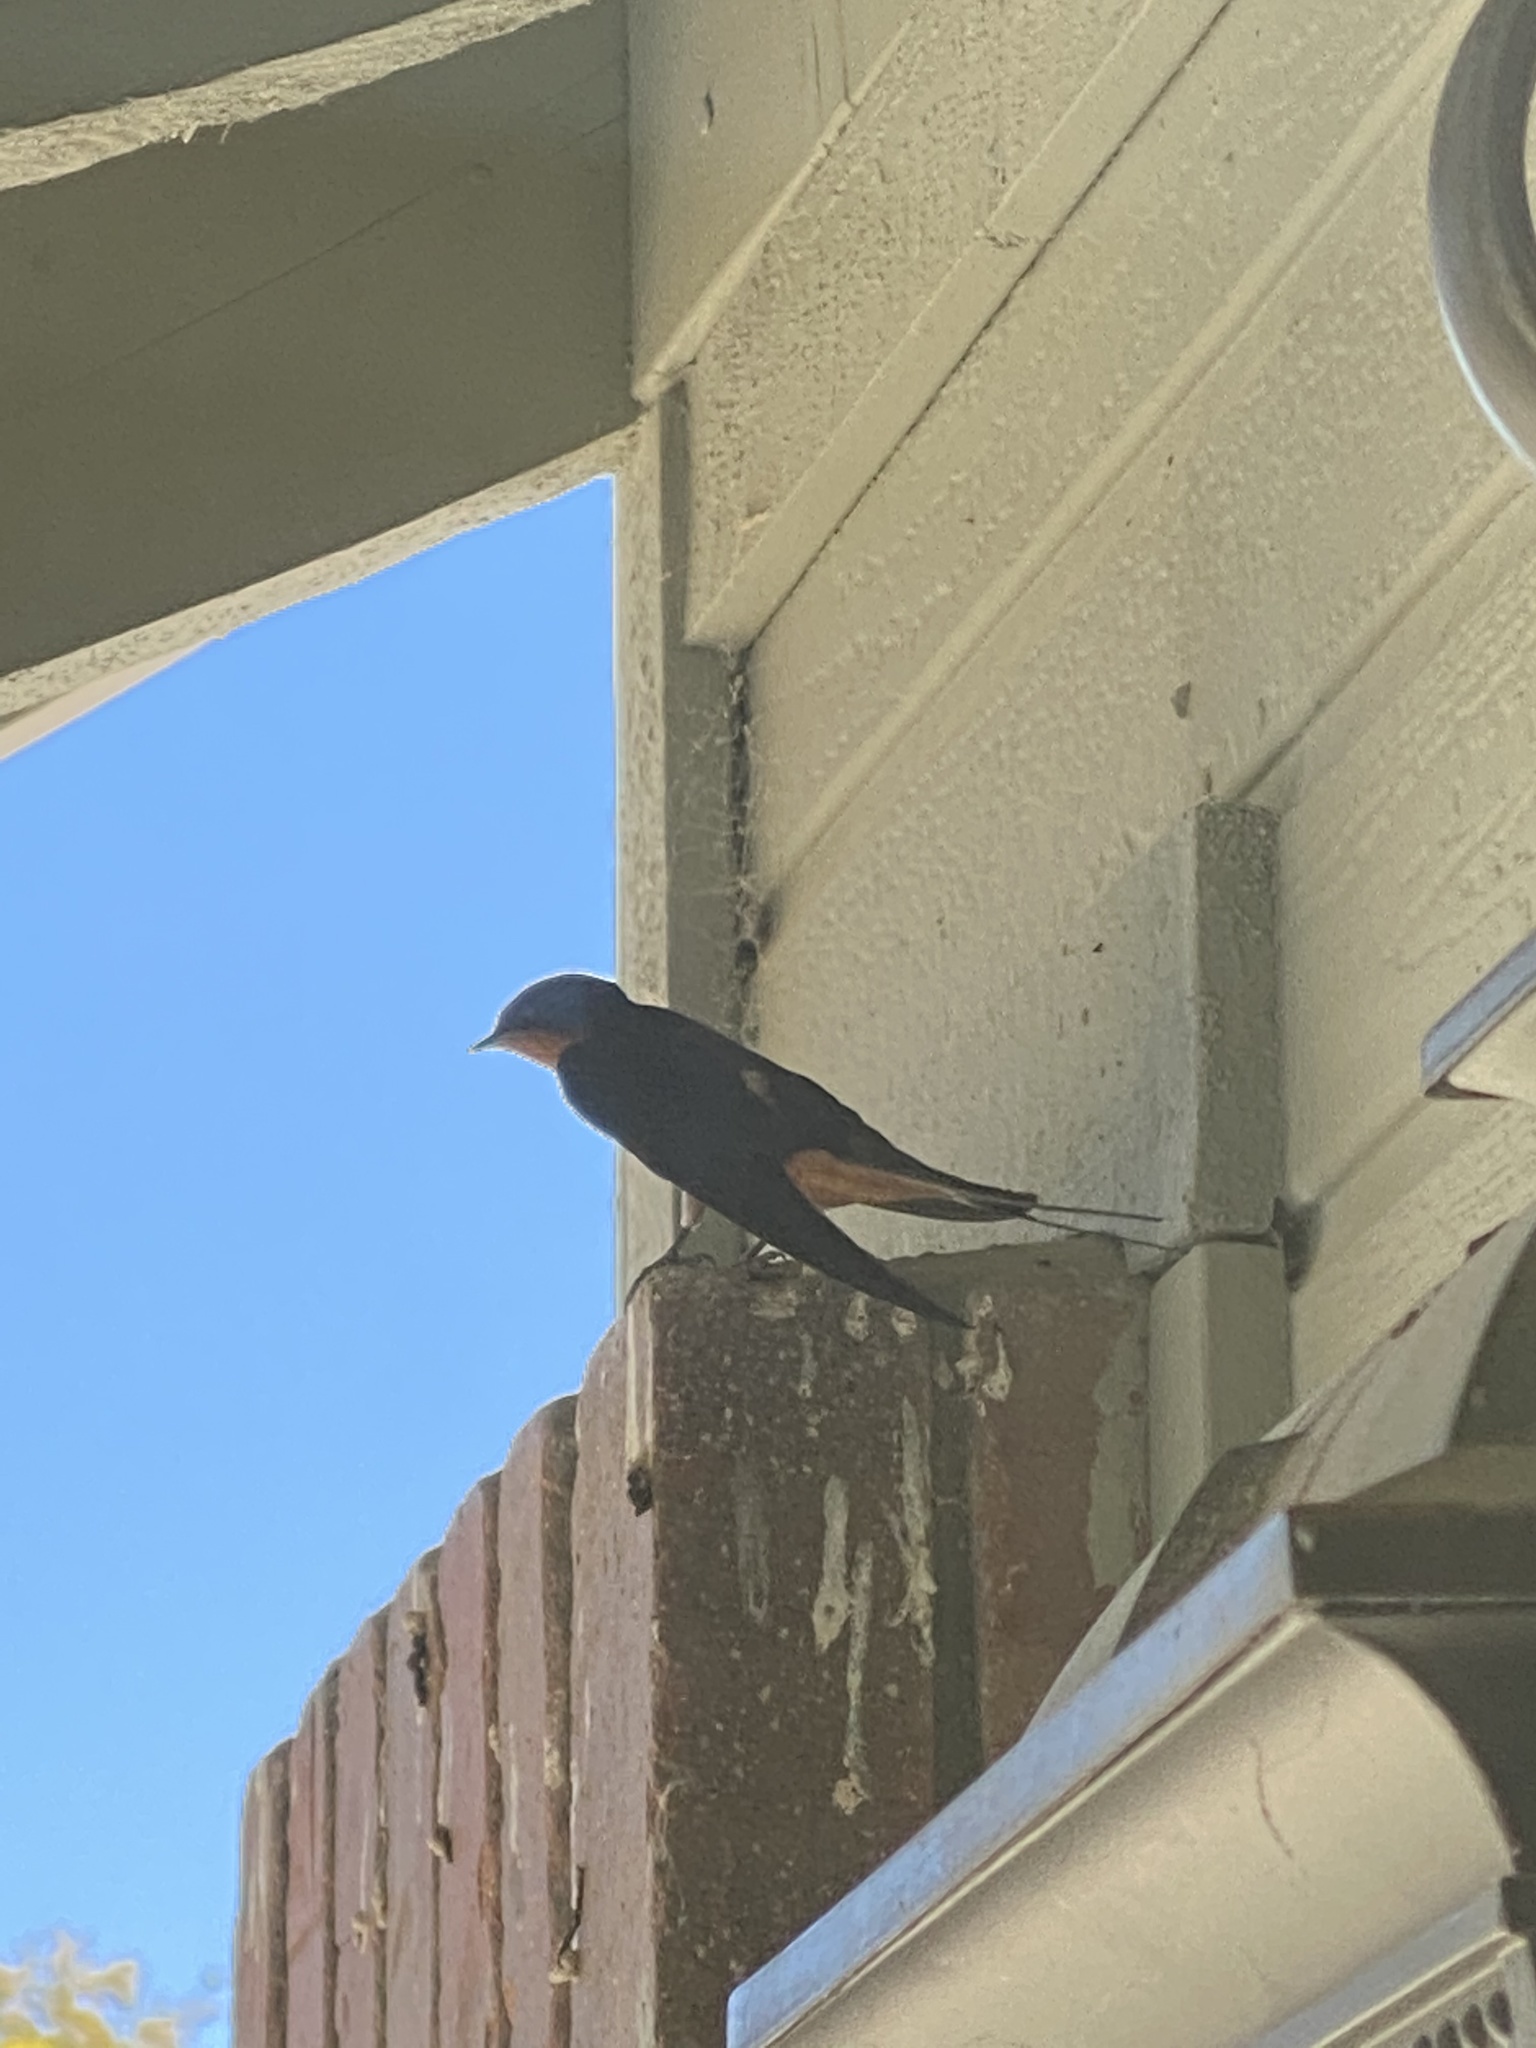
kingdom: Animalia
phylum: Chordata
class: Aves
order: Passeriformes
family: Hirundinidae
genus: Hirundo
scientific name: Hirundo rustica
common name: Barn swallow
